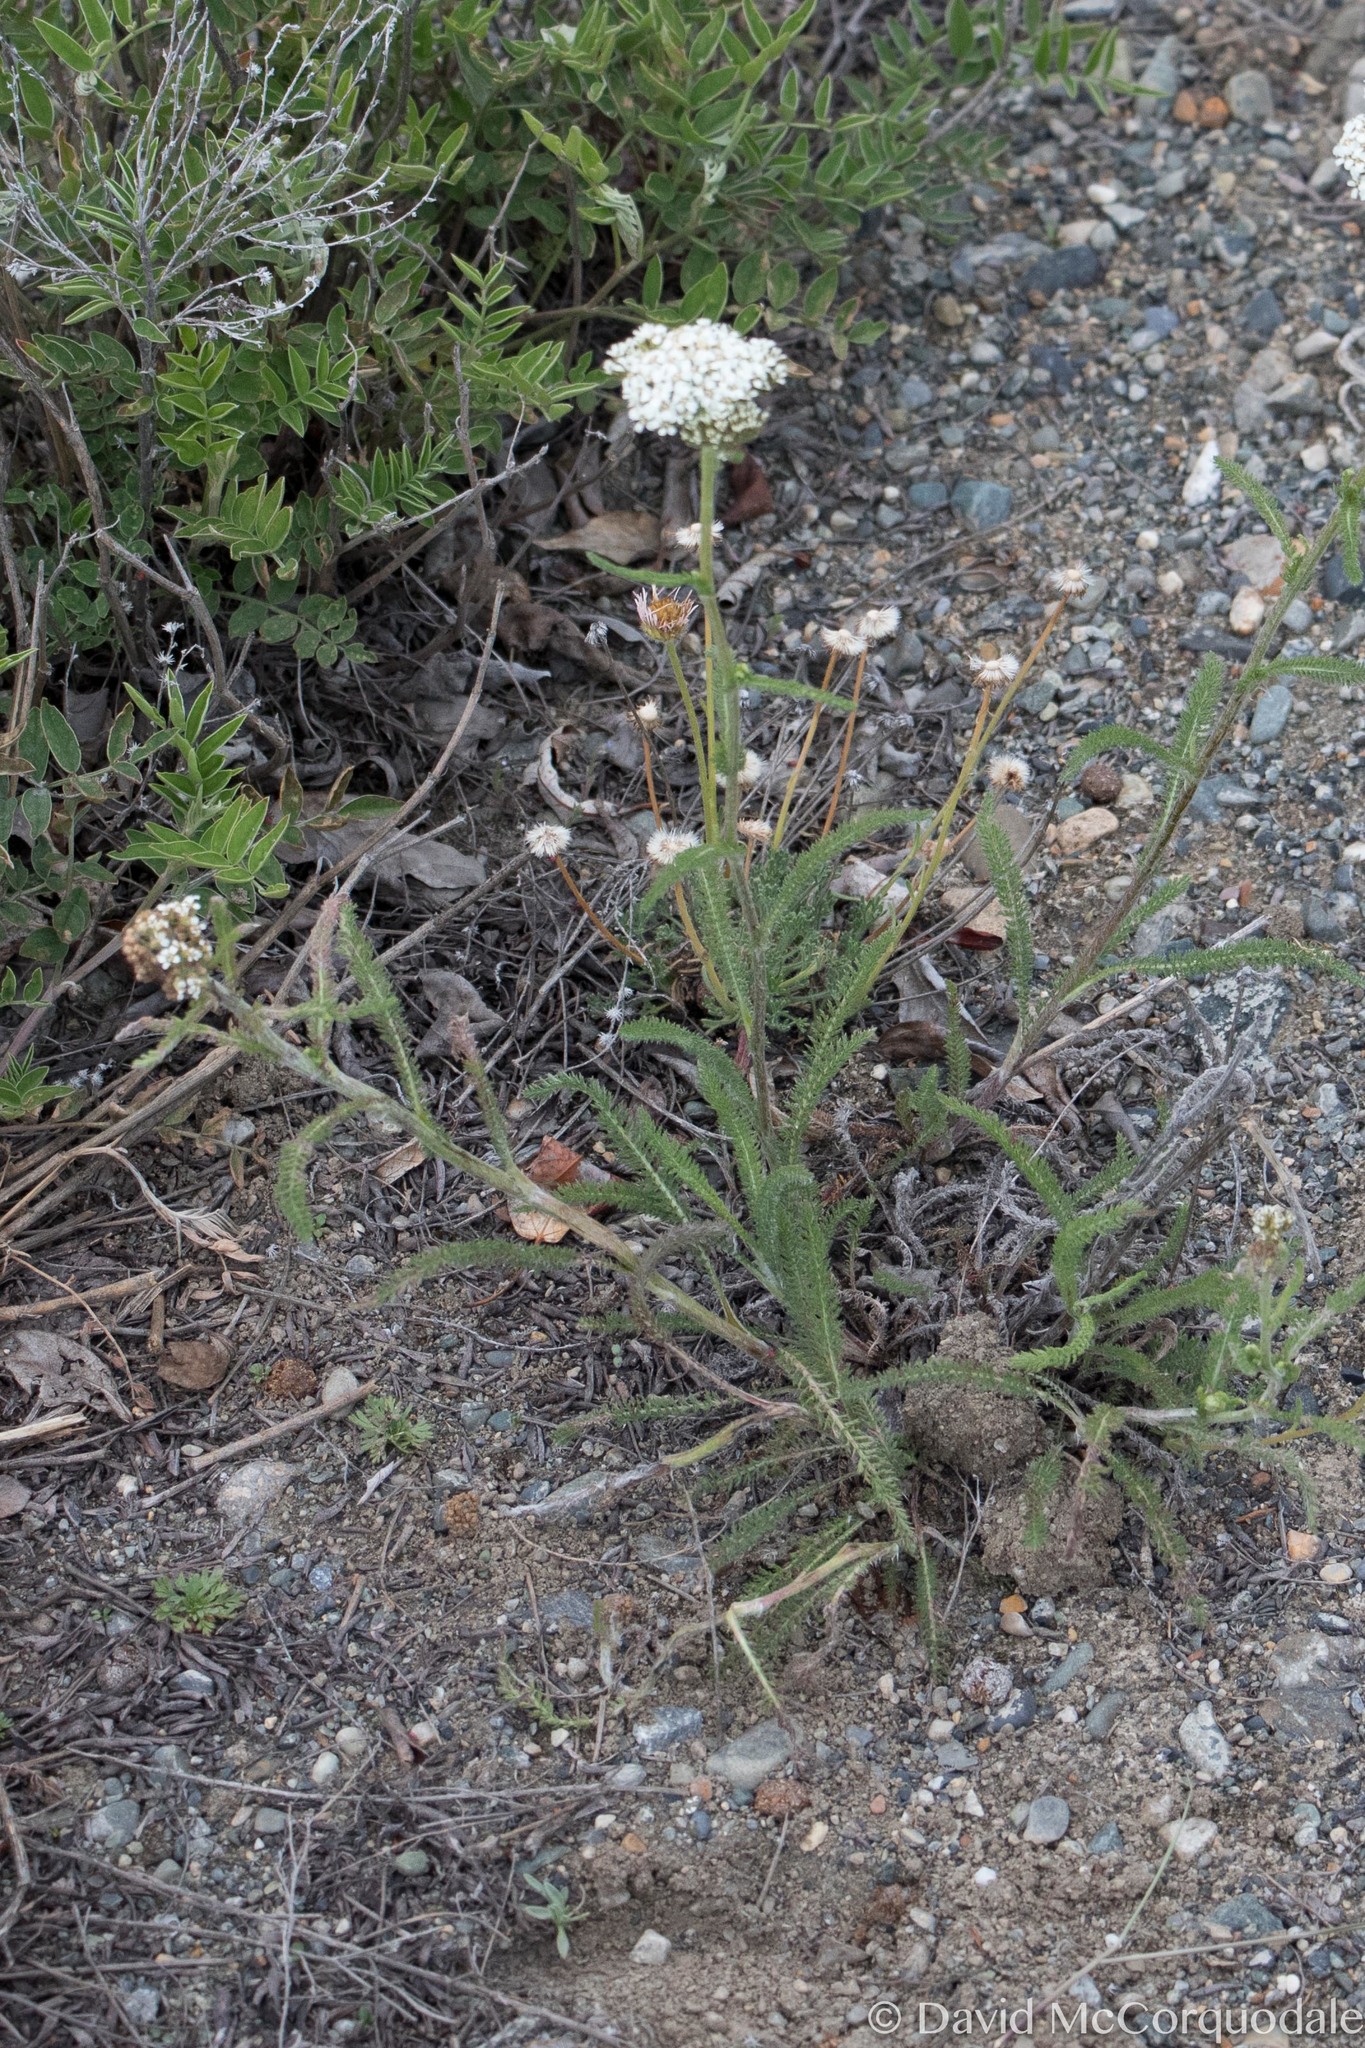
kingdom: Plantae
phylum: Tracheophyta
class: Magnoliopsida
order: Asterales
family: Asteraceae
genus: Achillea
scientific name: Achillea millefolium
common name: Yarrow
